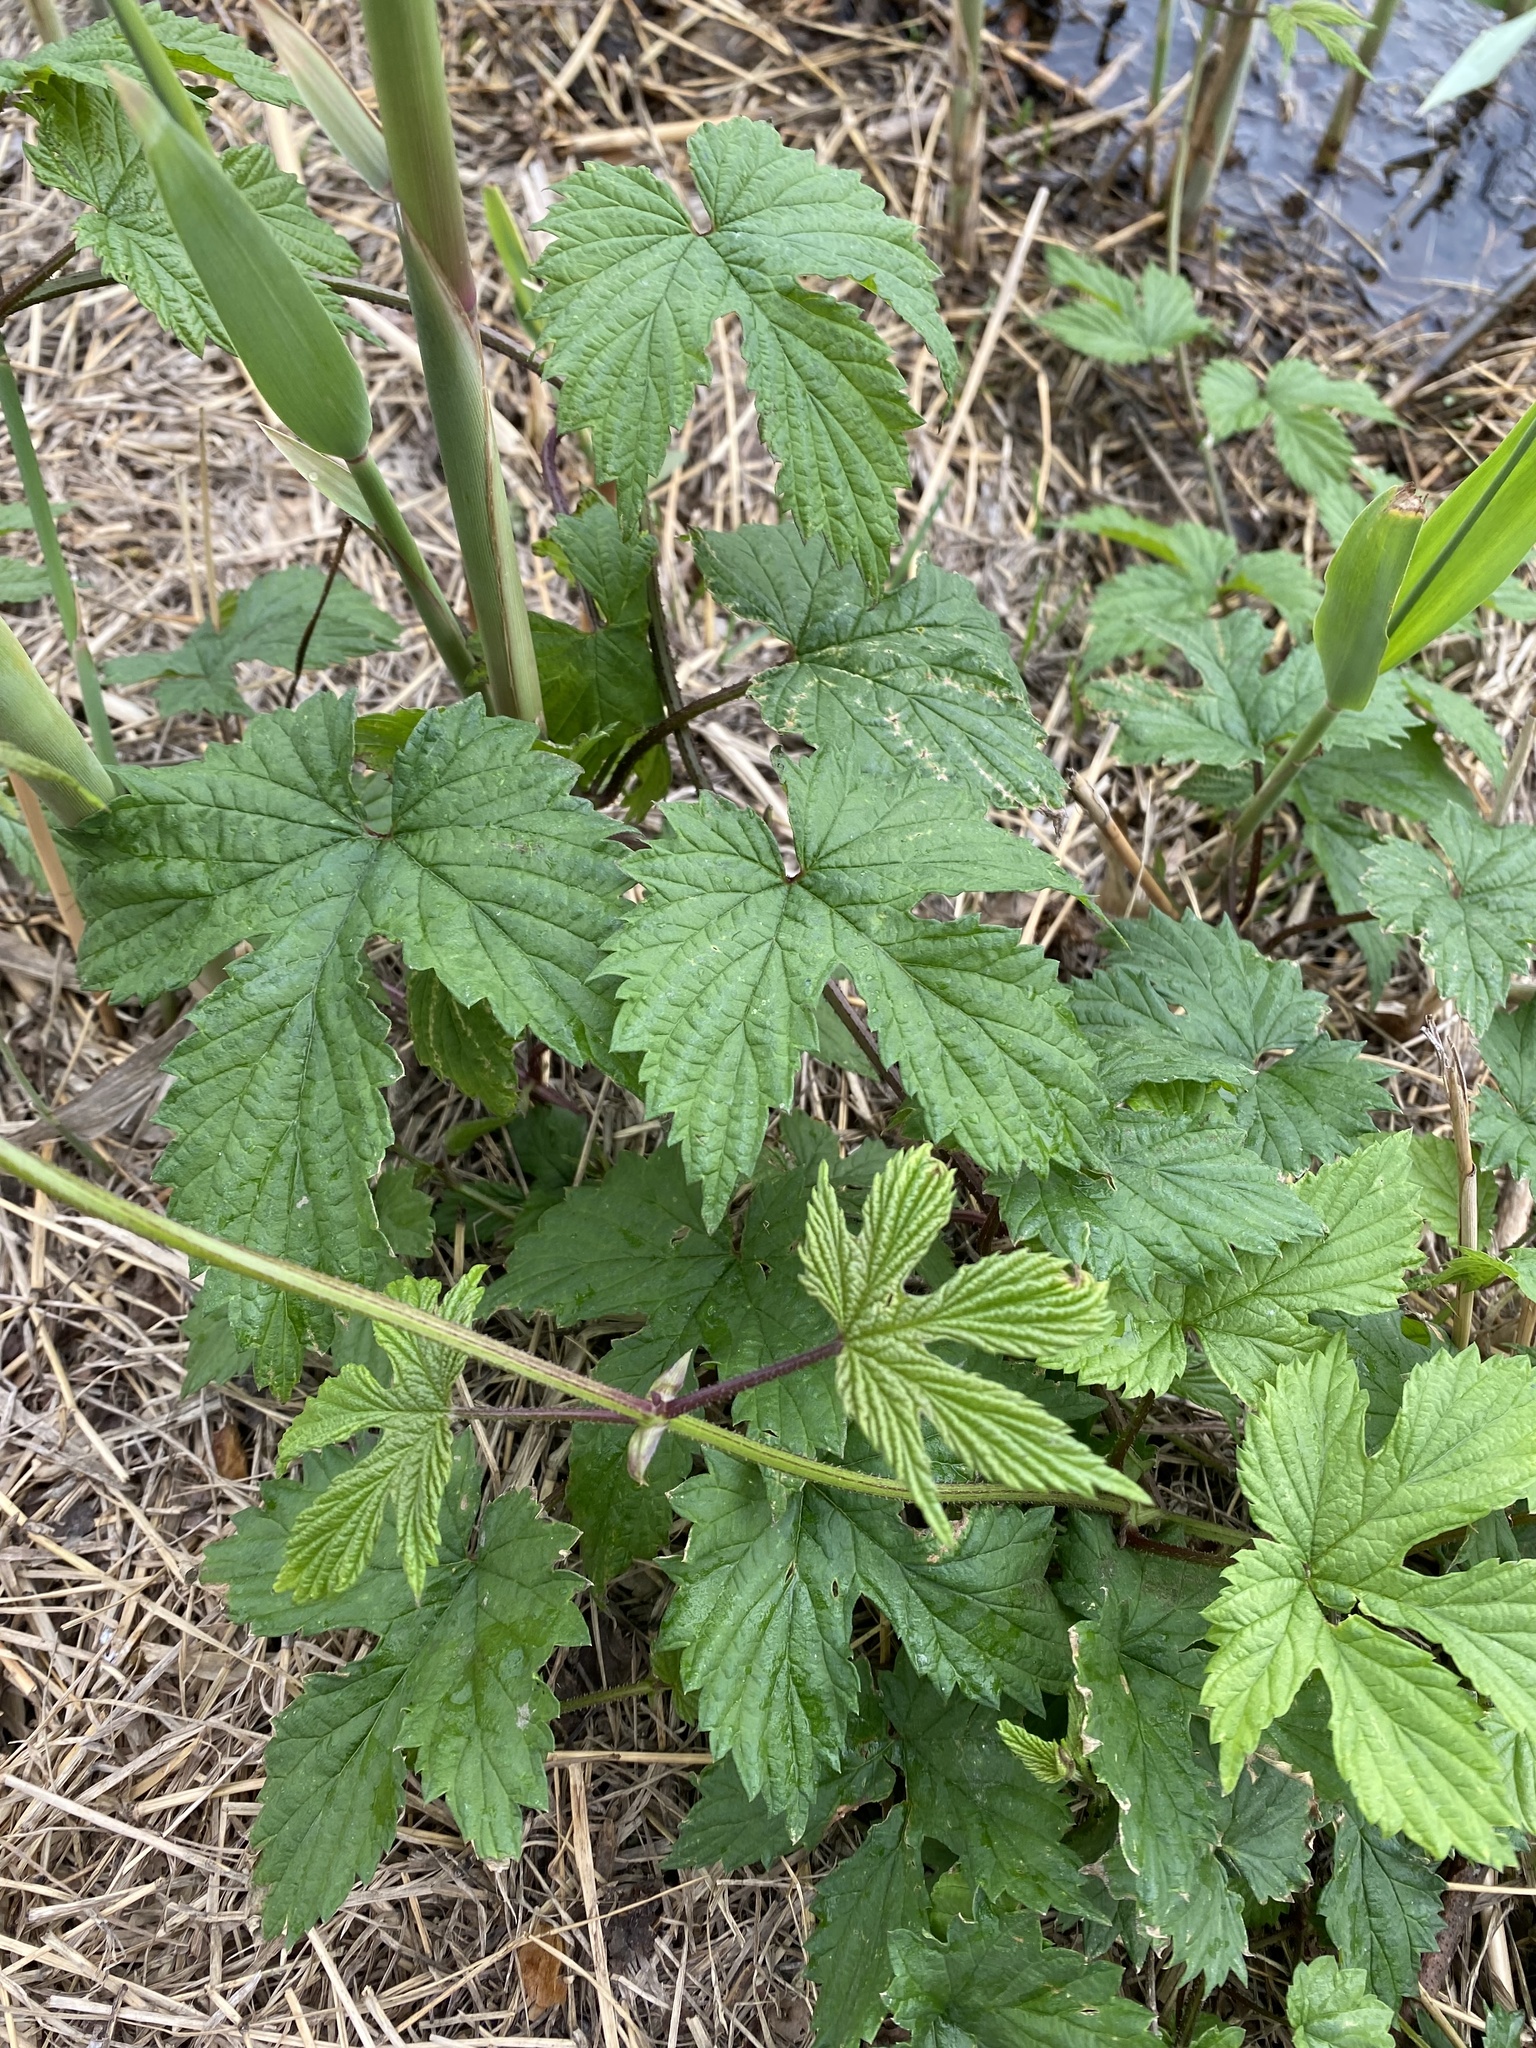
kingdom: Plantae
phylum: Tracheophyta
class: Magnoliopsida
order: Rosales
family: Cannabaceae
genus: Humulus
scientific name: Humulus lupulus
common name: Hop
